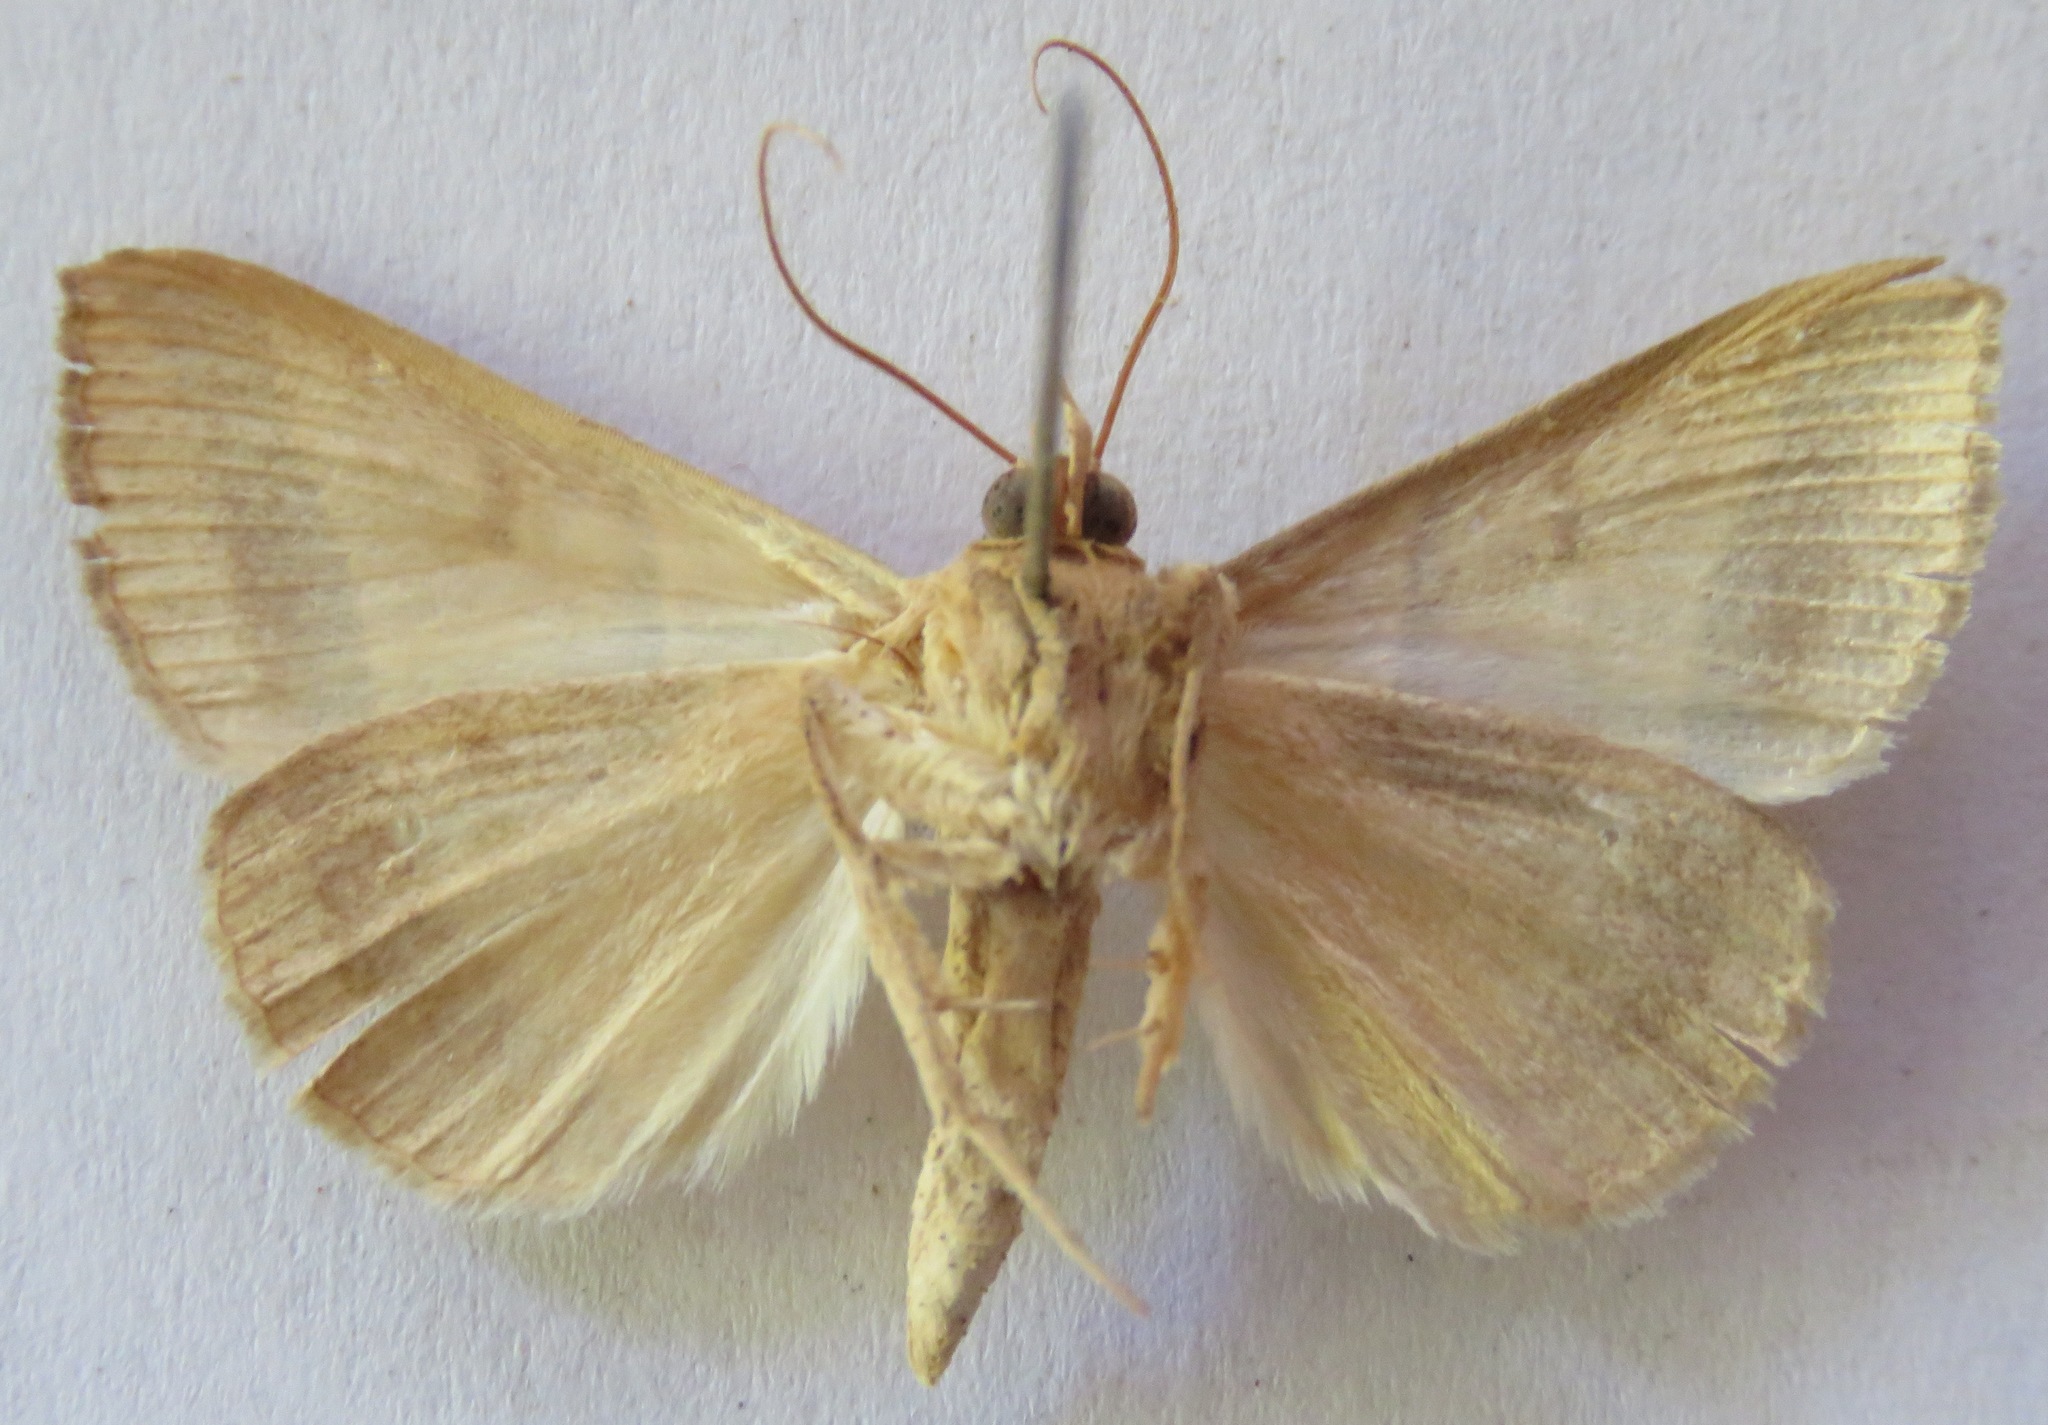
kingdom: Animalia
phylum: Arthropoda
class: Insecta
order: Lepidoptera
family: Erebidae
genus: Ptichodis
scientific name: Ptichodis immunis
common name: Cutworm moth
